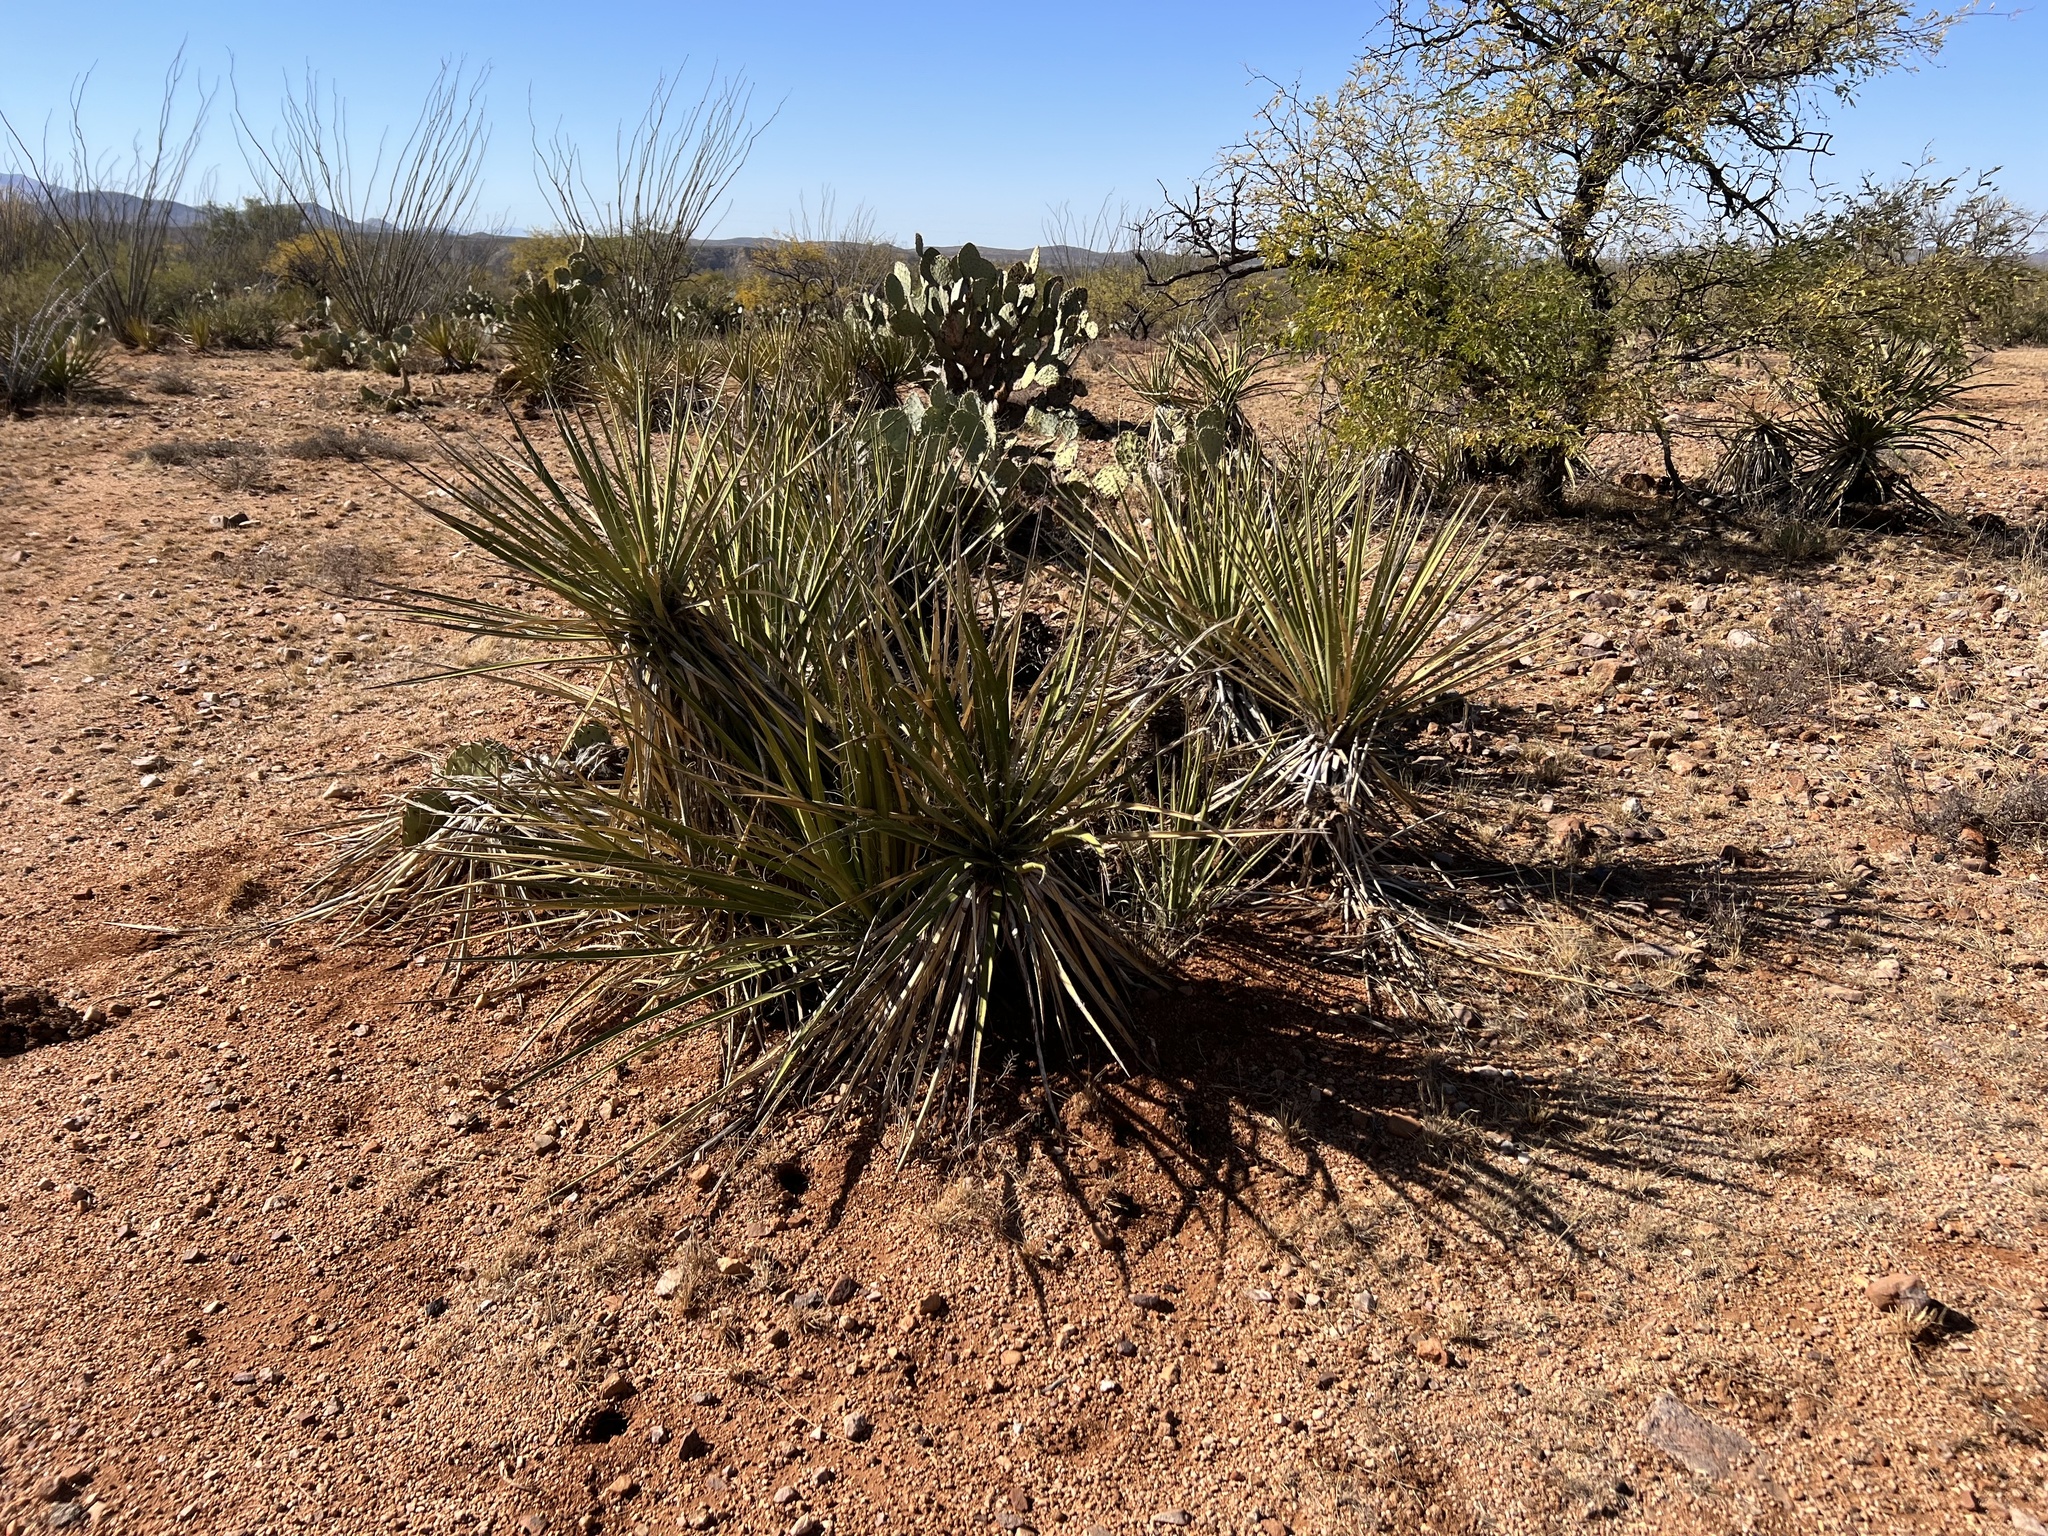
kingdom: Plantae
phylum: Tracheophyta
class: Liliopsida
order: Asparagales
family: Asparagaceae
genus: Yucca
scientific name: Yucca baccata
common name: Banana yucca
